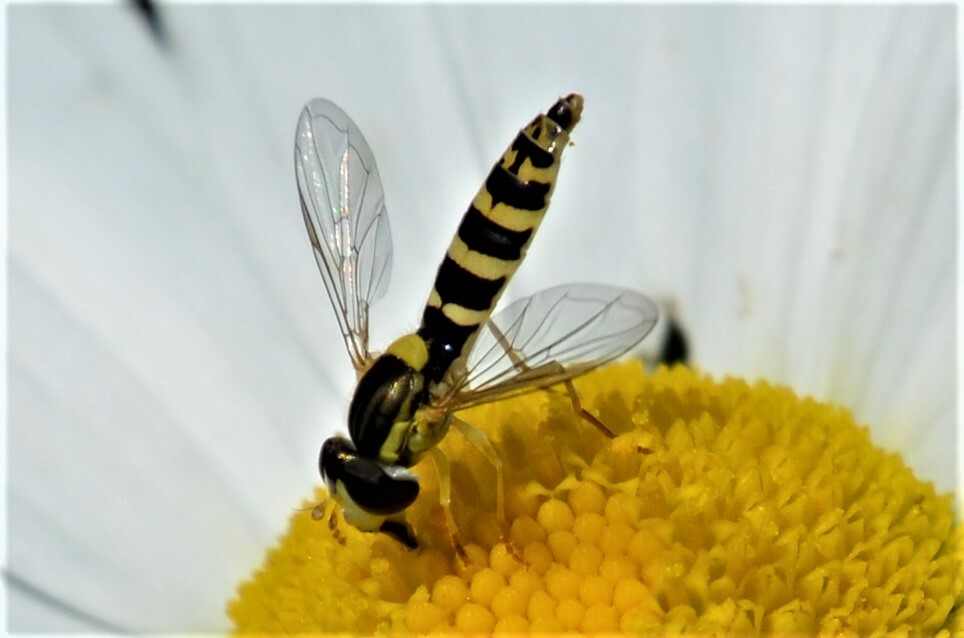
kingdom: Animalia
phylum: Arthropoda
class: Insecta
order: Diptera
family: Syrphidae
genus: Sphaerophoria
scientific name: Sphaerophoria
